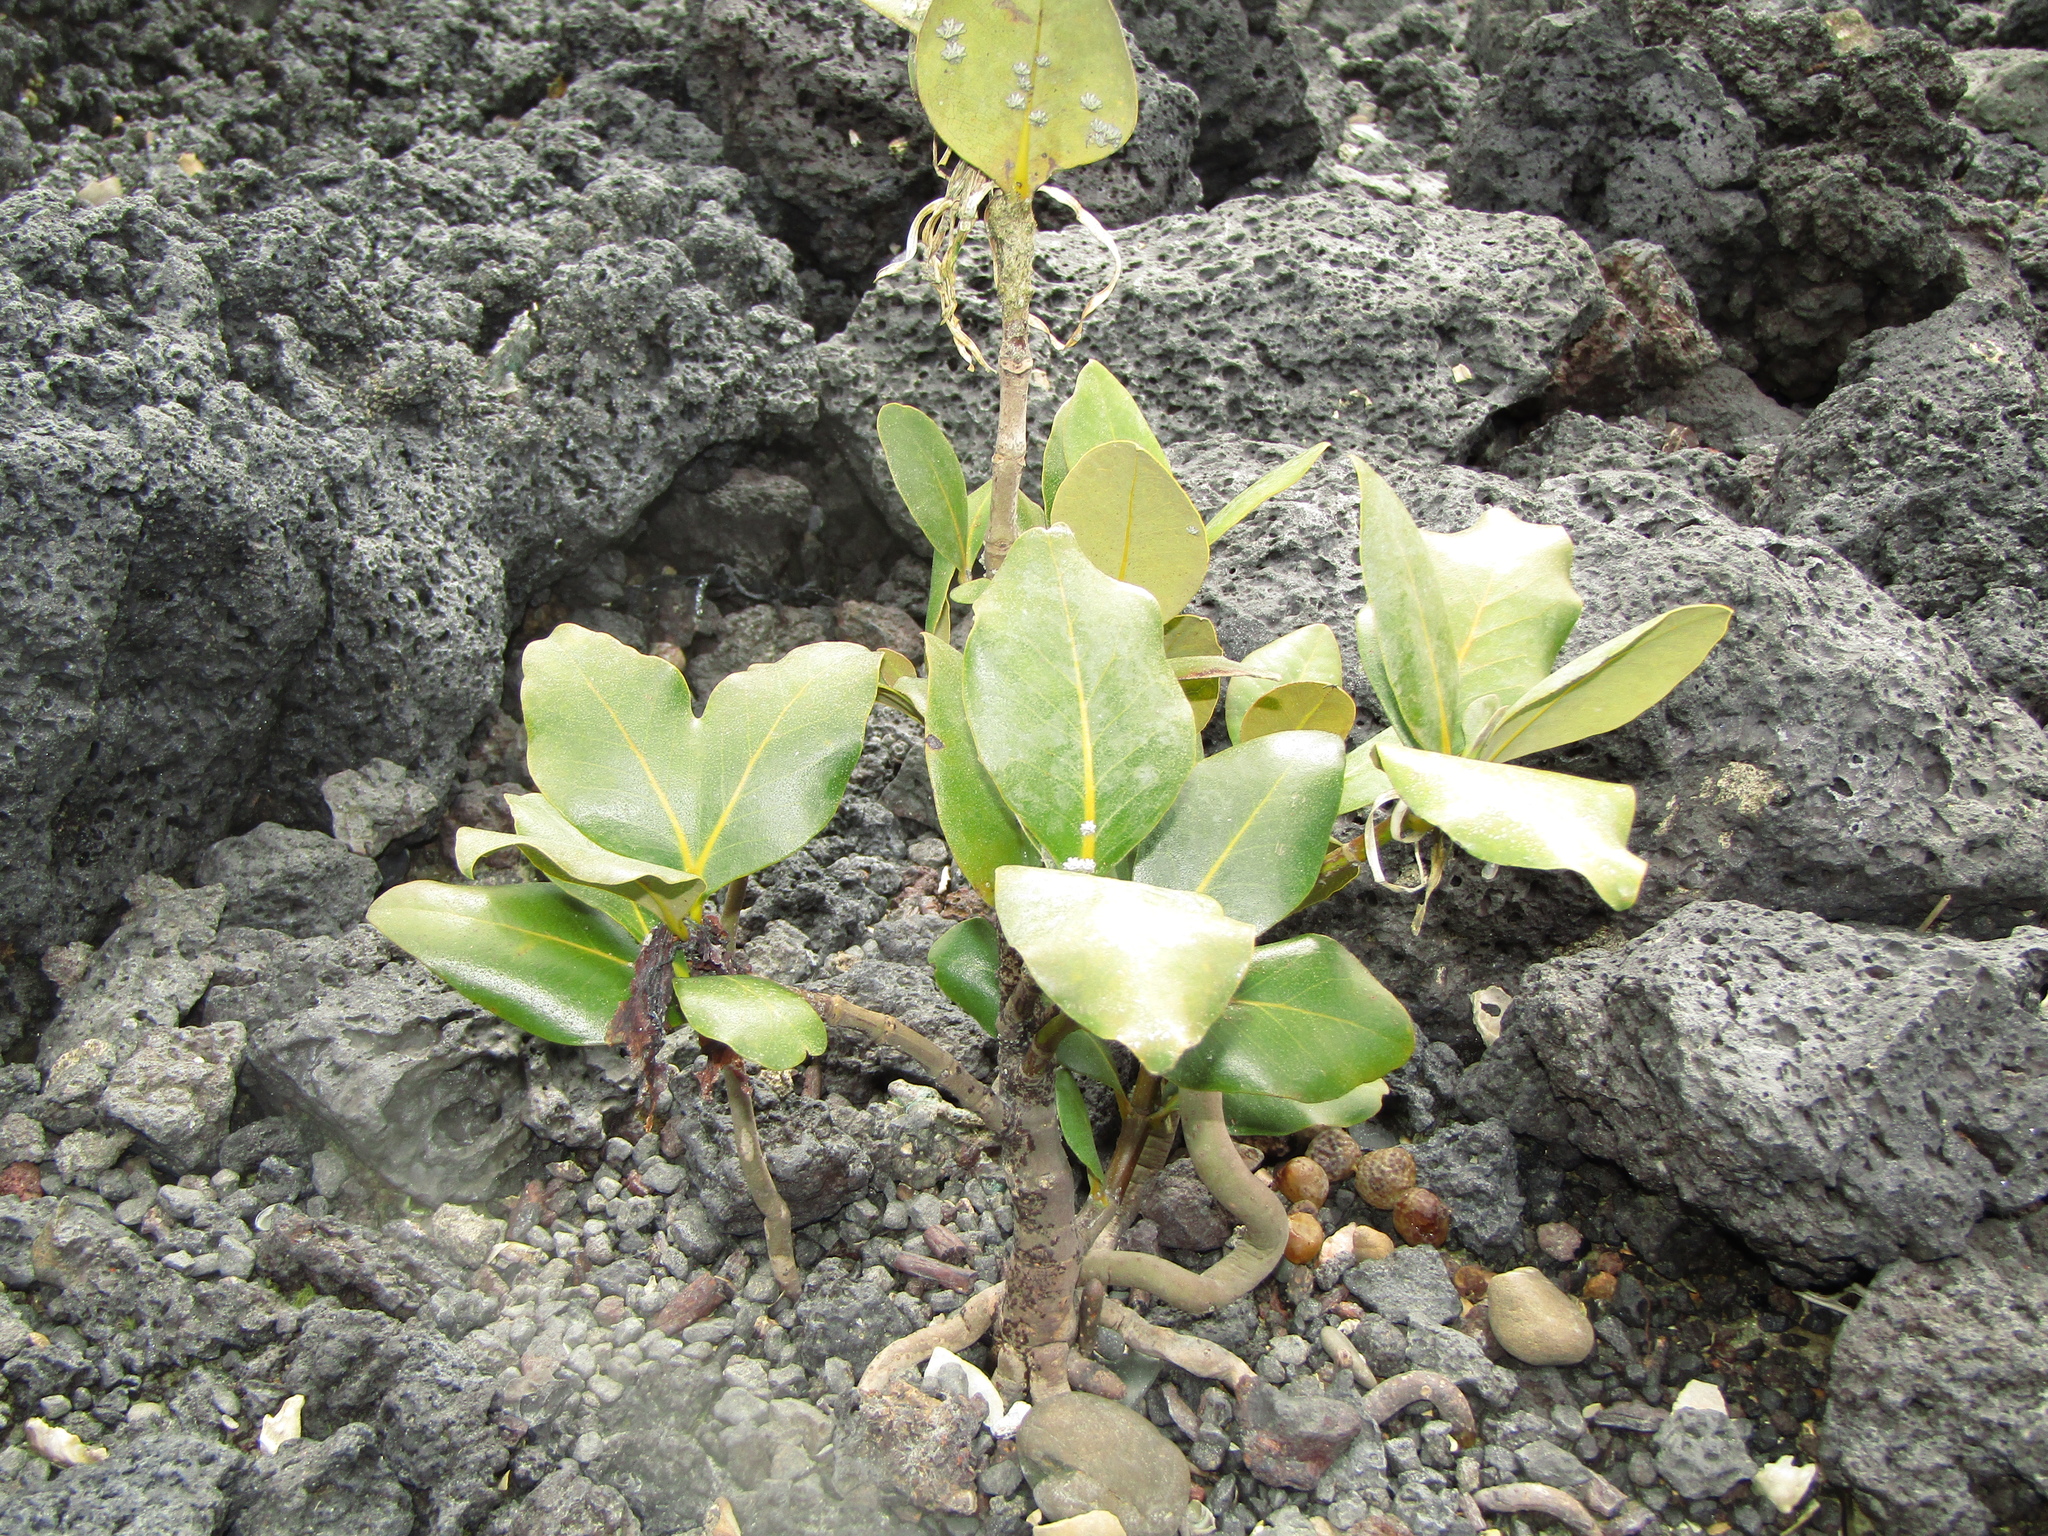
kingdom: Plantae
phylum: Tracheophyta
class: Magnoliopsida
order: Lamiales
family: Acanthaceae
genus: Avicennia
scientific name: Avicennia marina
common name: Gray mangrove
